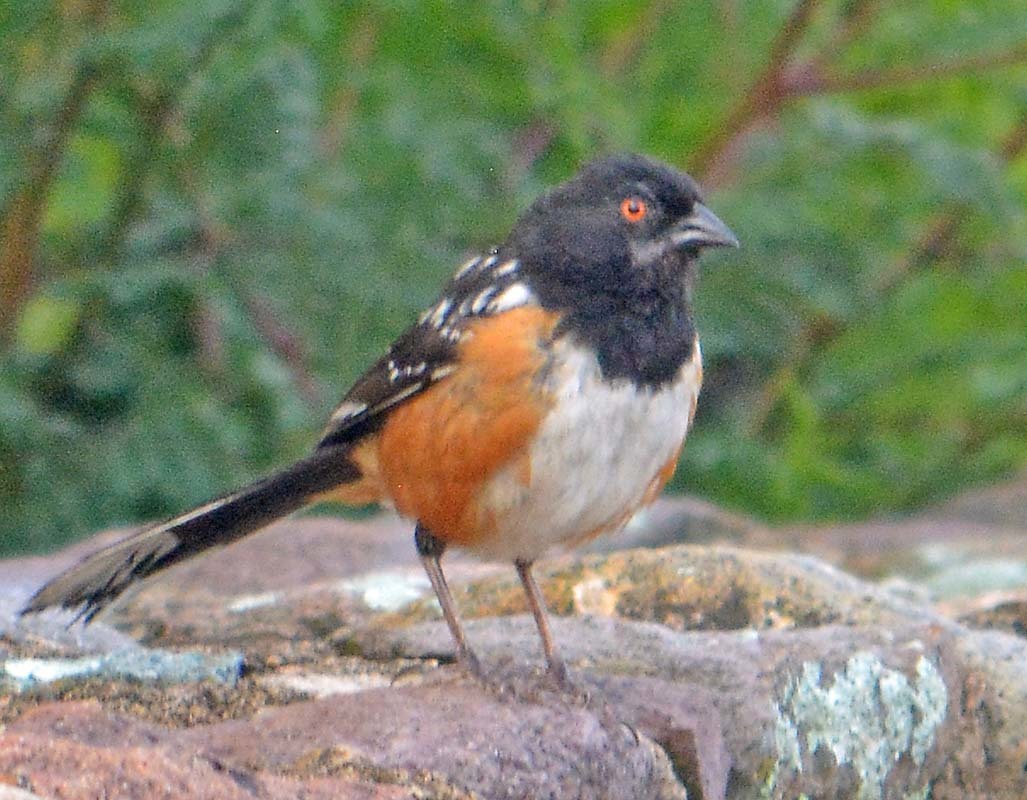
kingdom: Animalia
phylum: Chordata
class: Aves
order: Passeriformes
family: Passerellidae
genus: Pipilo
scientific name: Pipilo maculatus
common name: Spotted towhee
